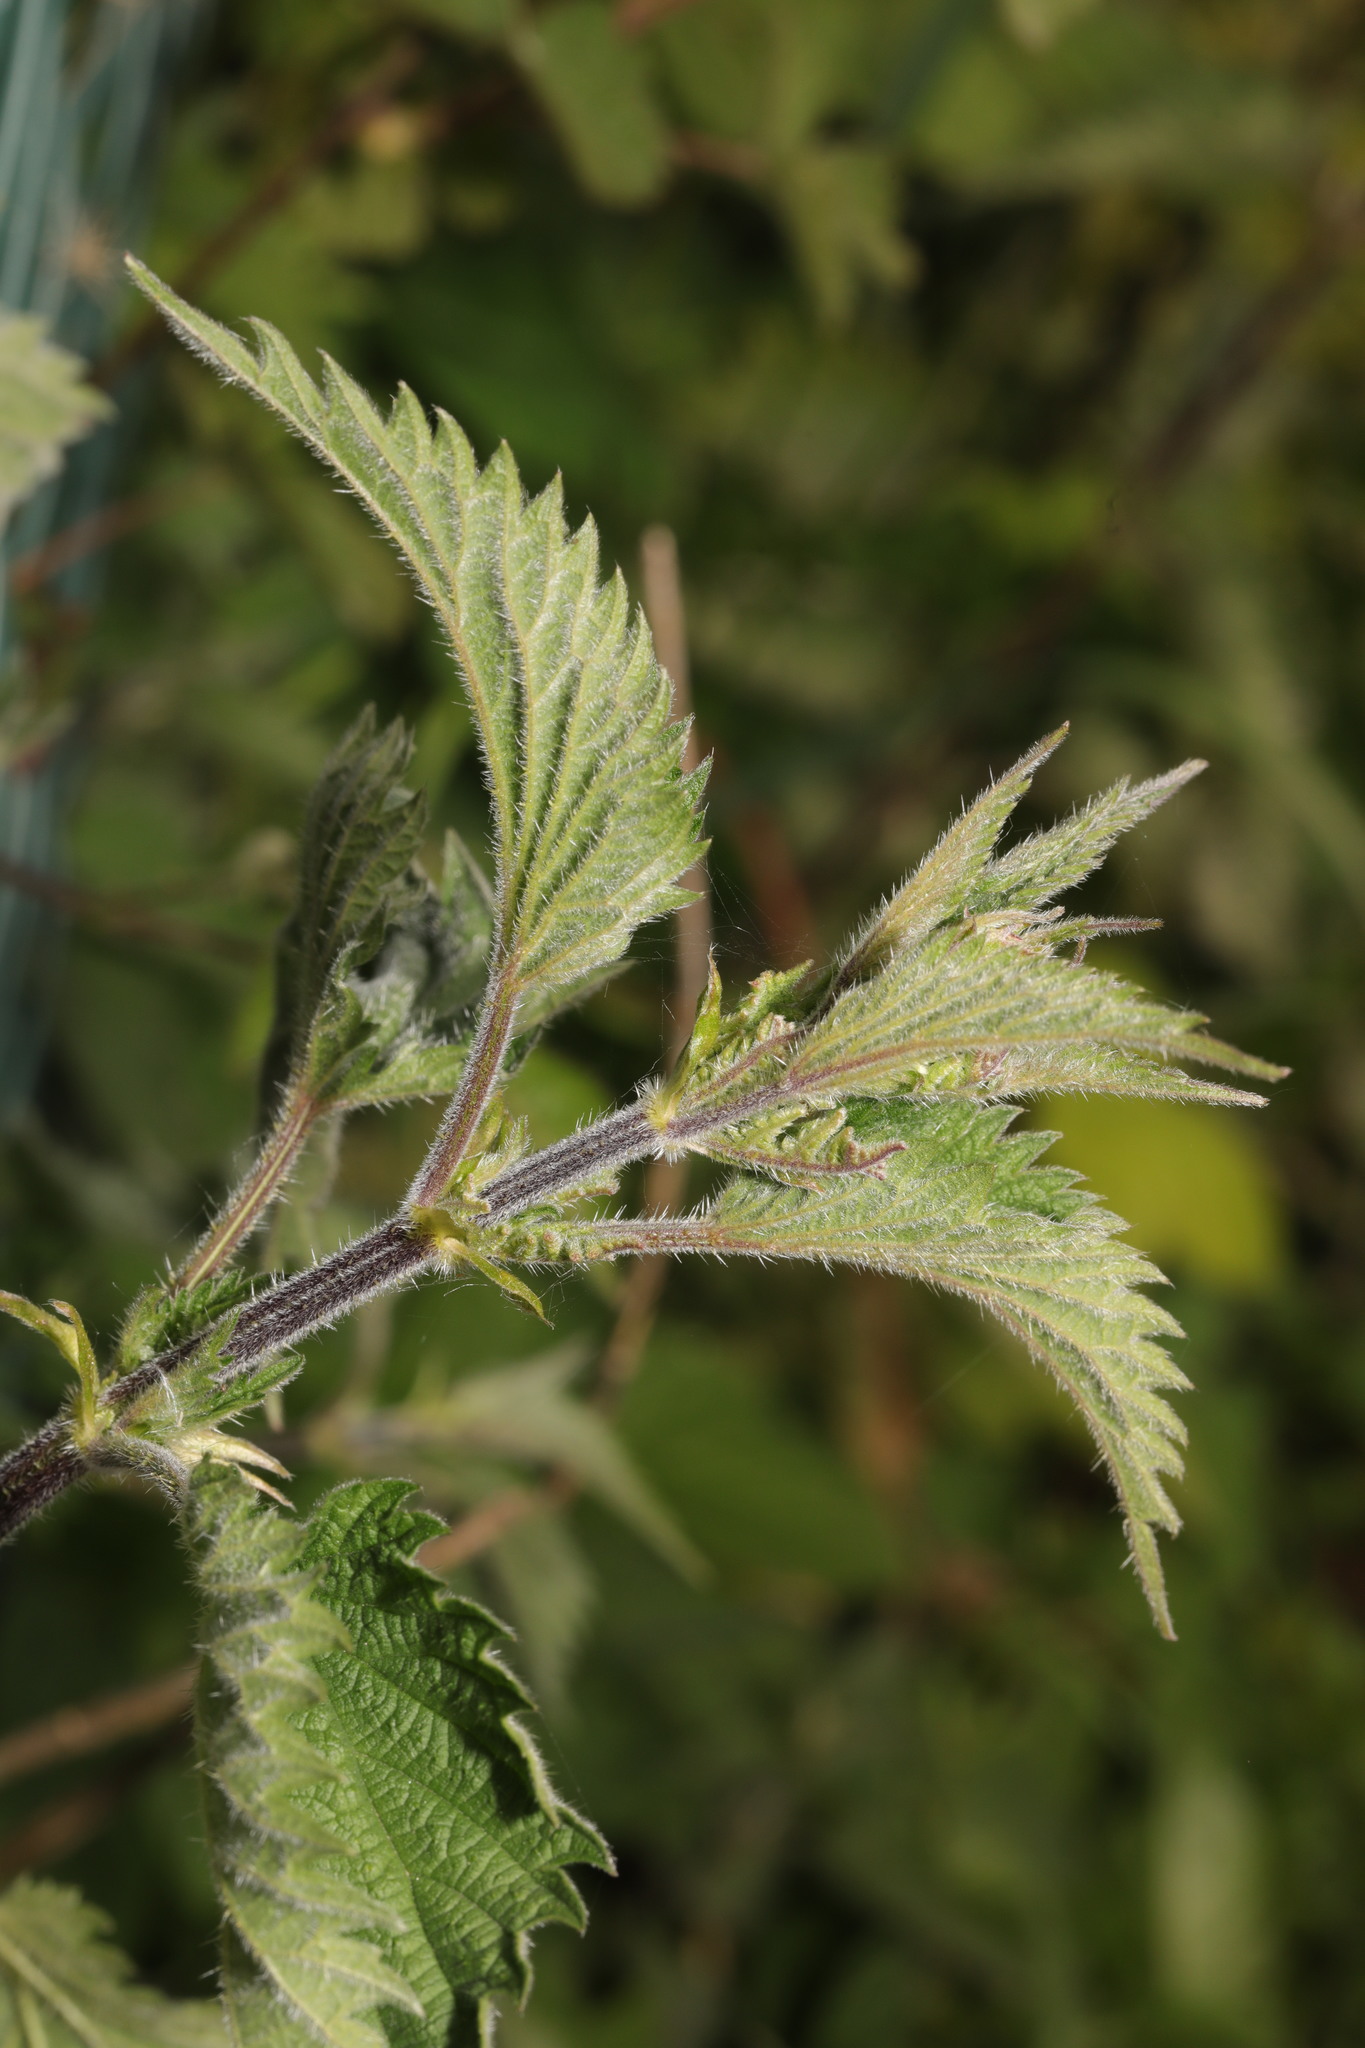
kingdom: Plantae
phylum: Tracheophyta
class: Magnoliopsida
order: Rosales
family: Urticaceae
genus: Urtica
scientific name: Urtica dioica
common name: Common nettle
